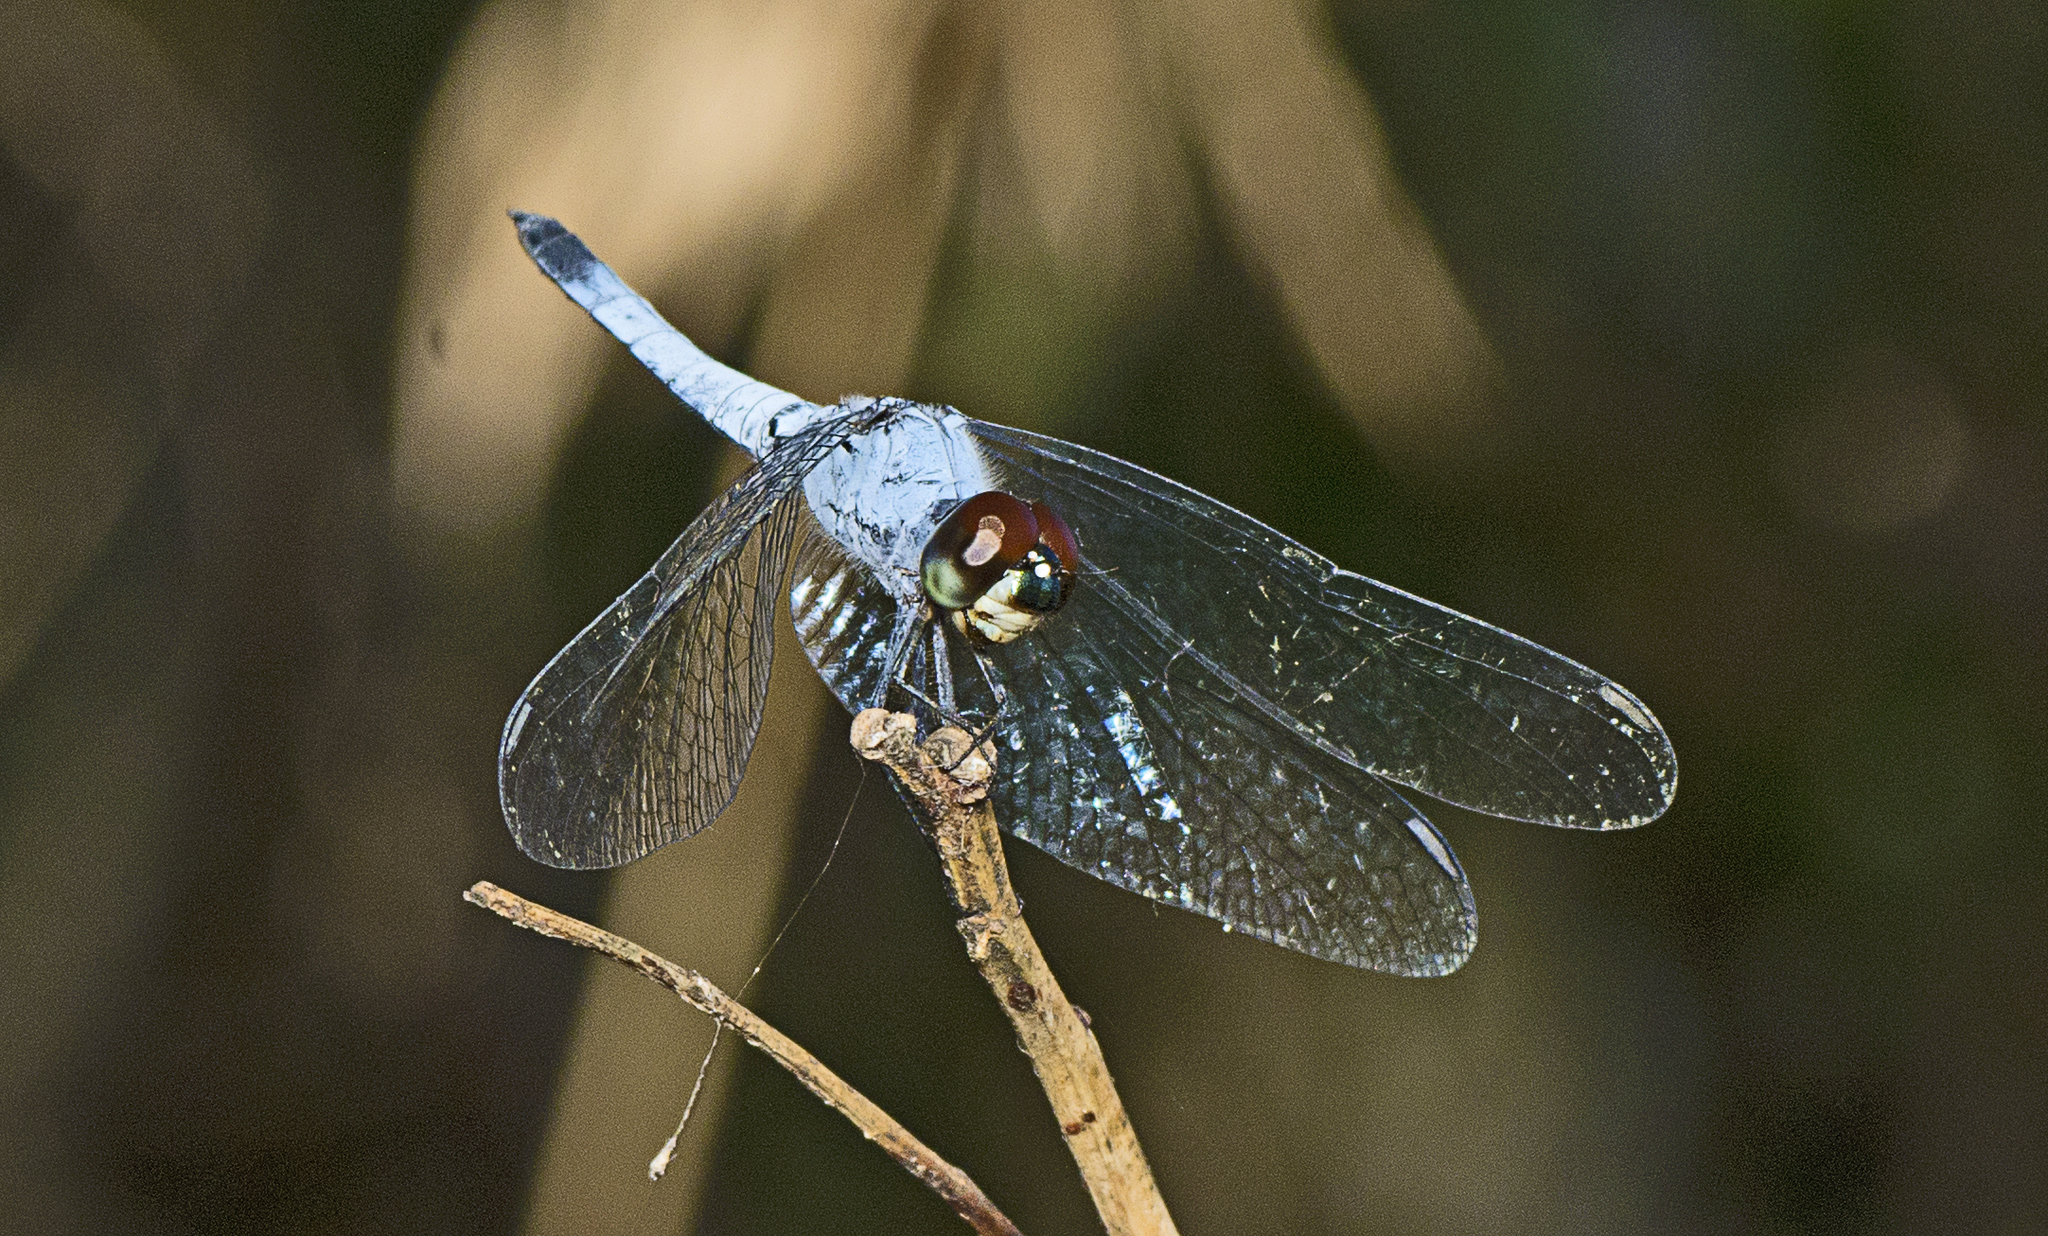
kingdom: Animalia
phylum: Arthropoda
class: Insecta
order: Odonata
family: Libellulidae
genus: Brachydiplax
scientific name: Brachydiplax denticauda
